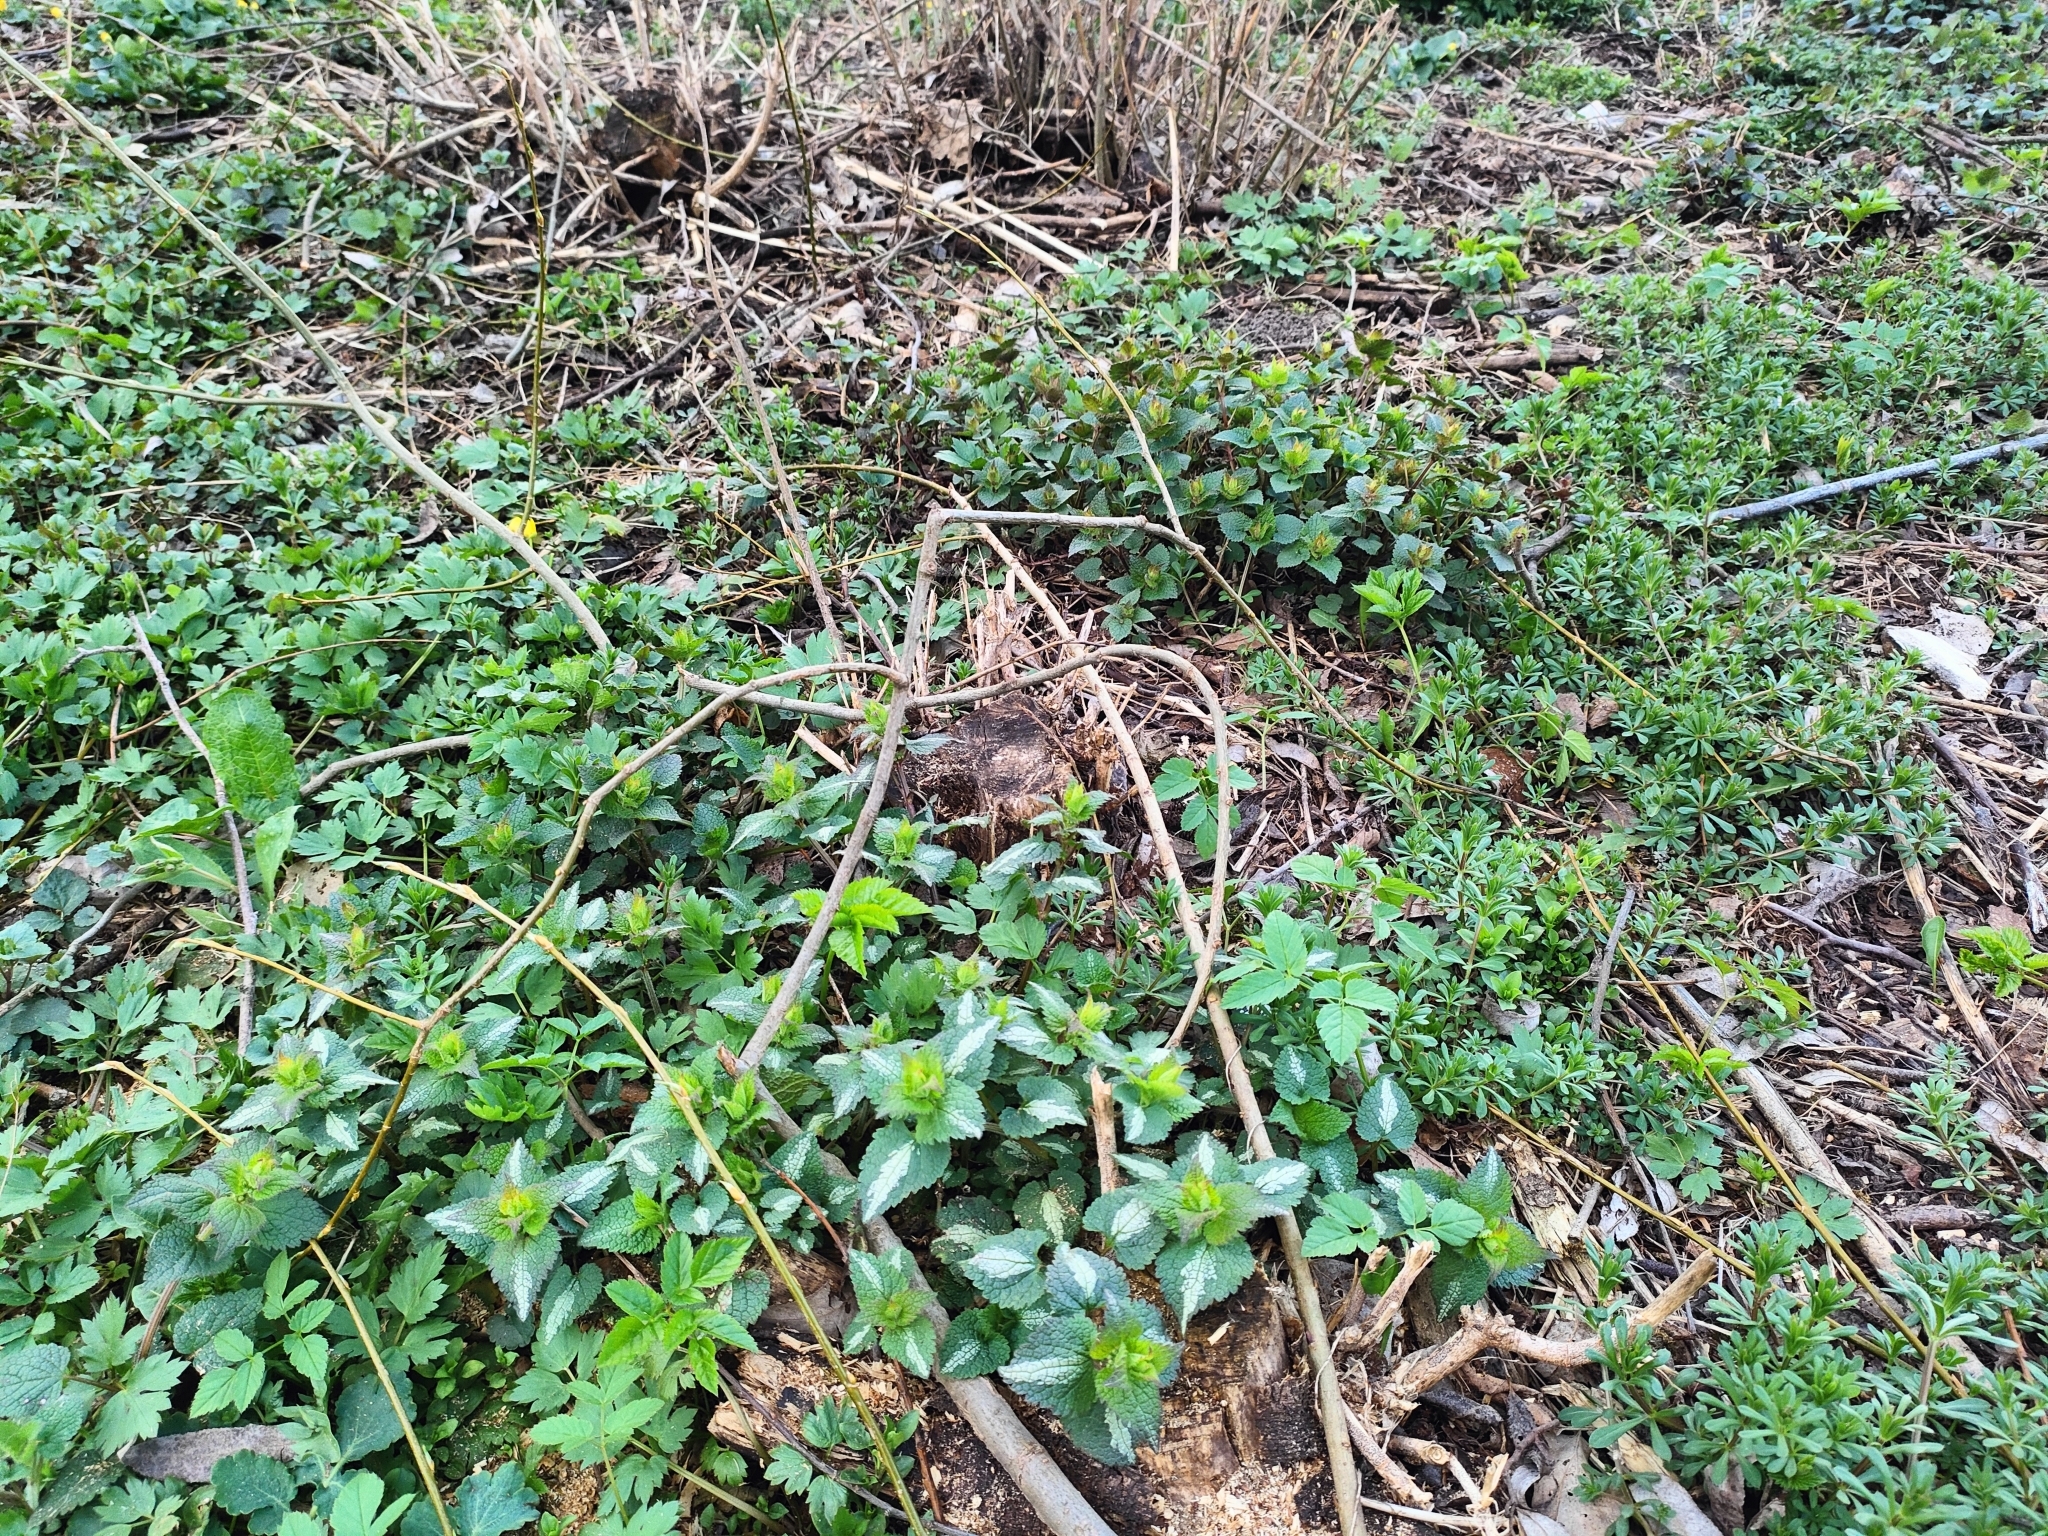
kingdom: Plantae
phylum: Tracheophyta
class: Magnoliopsida
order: Lamiales
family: Lamiaceae
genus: Lamium
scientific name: Lamium maculatum
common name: Spotted dead-nettle
